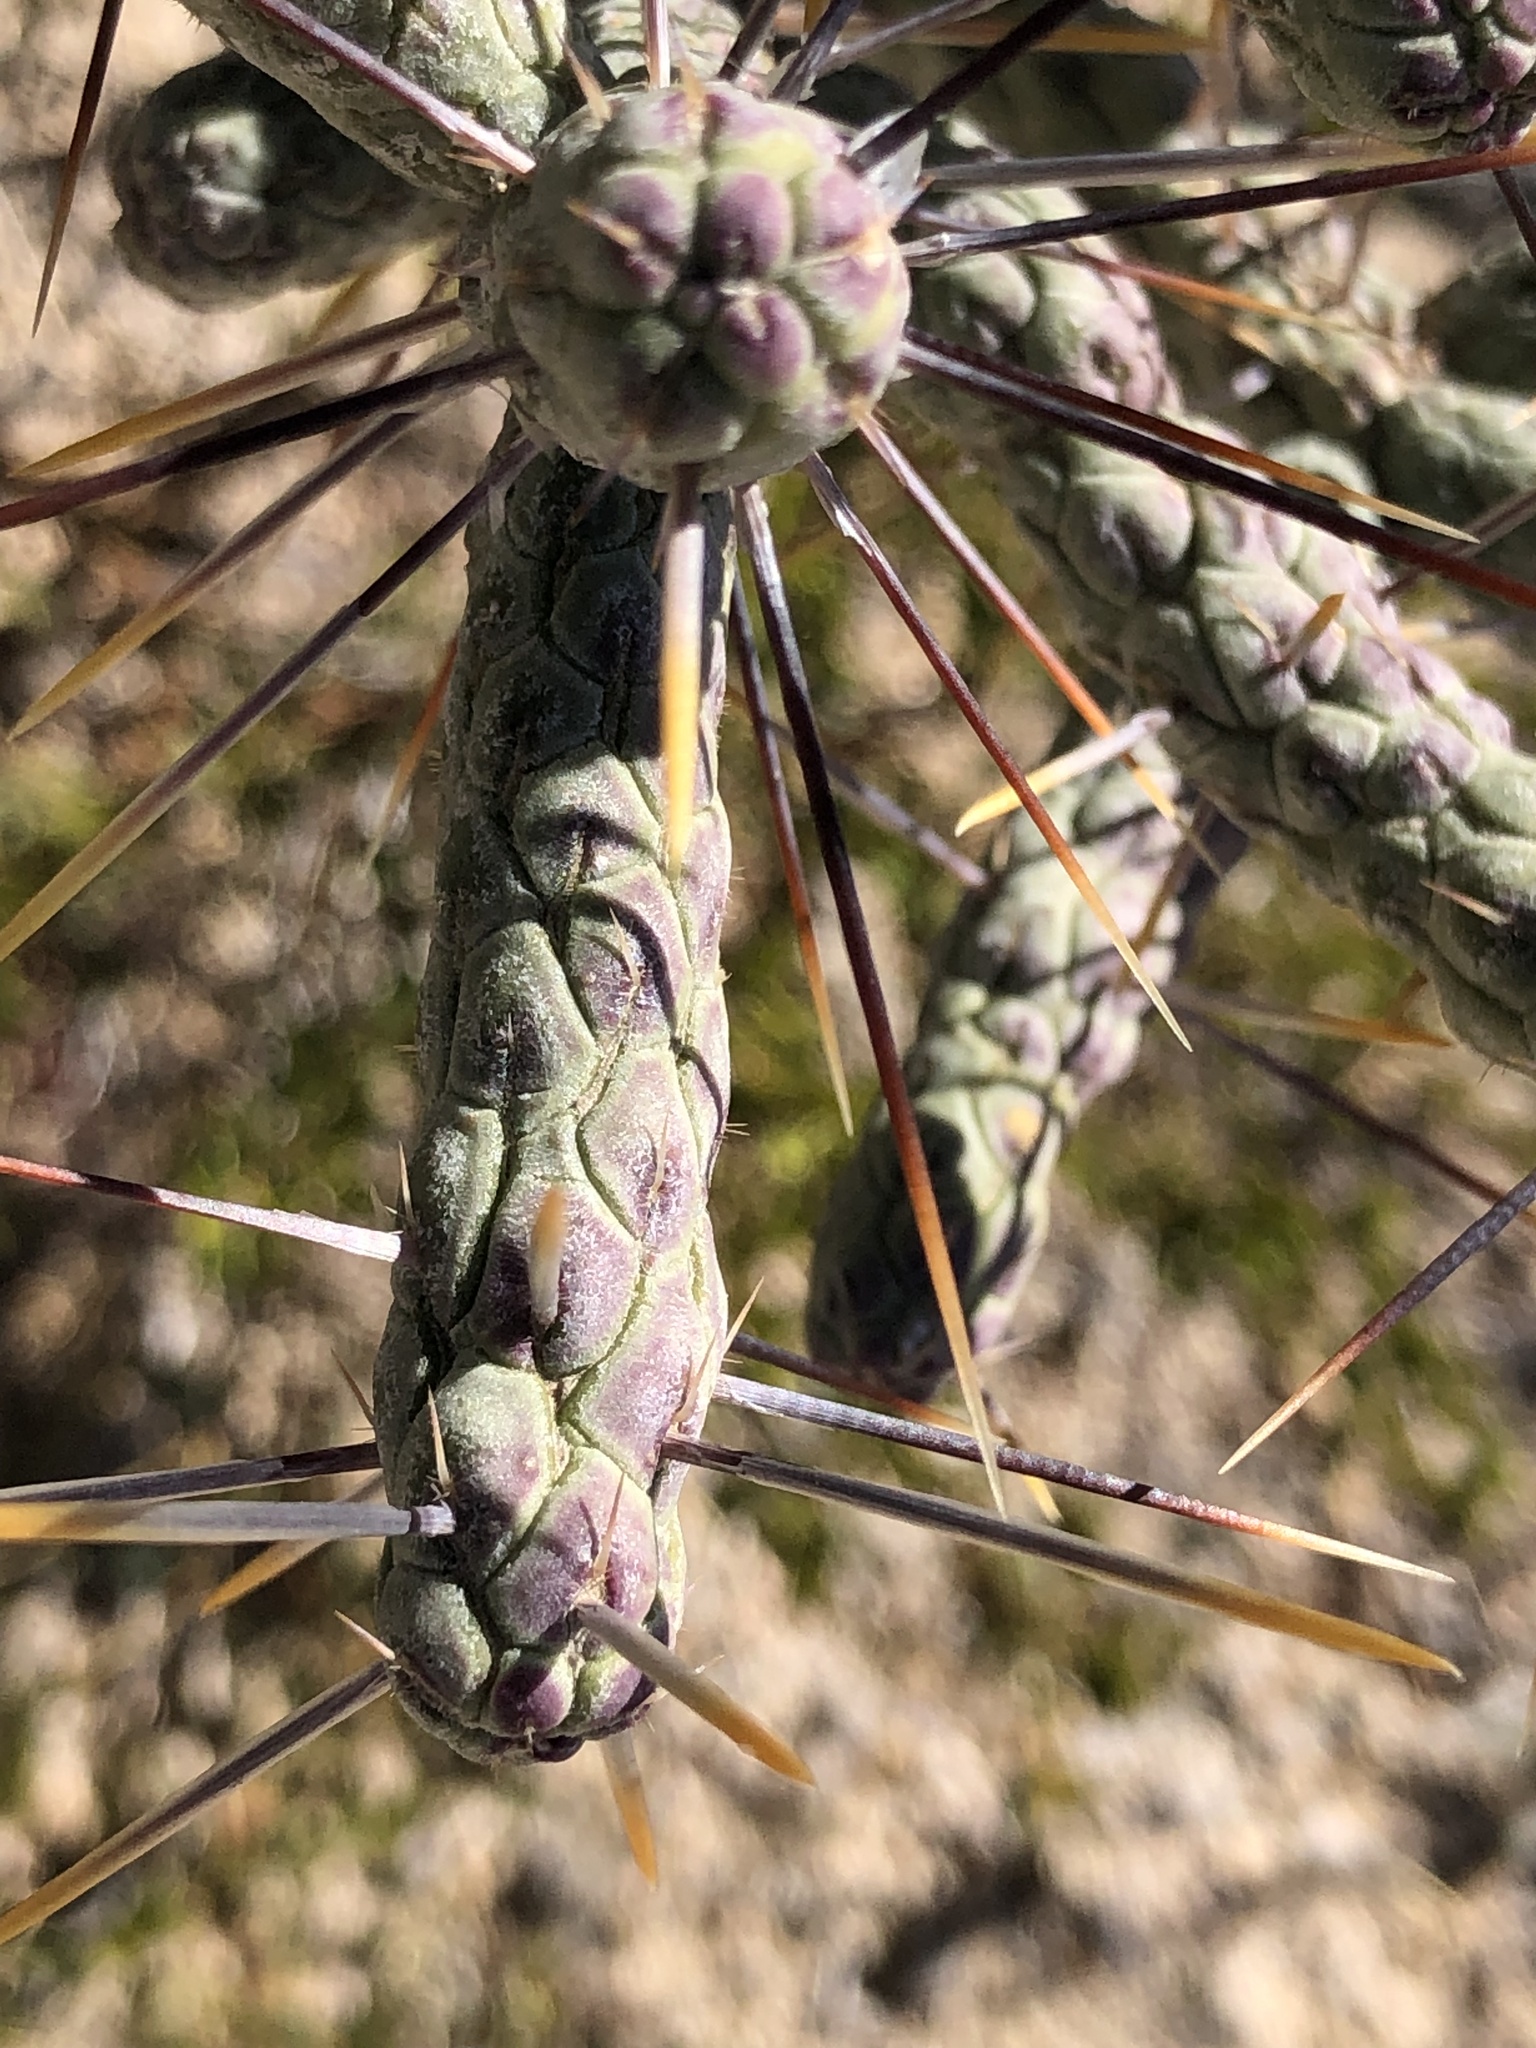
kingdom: Plantae
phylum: Tracheophyta
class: Magnoliopsida
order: Caryophyllales
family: Cactaceae
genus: Cylindropuntia
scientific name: Cylindropuntia ramosissima
